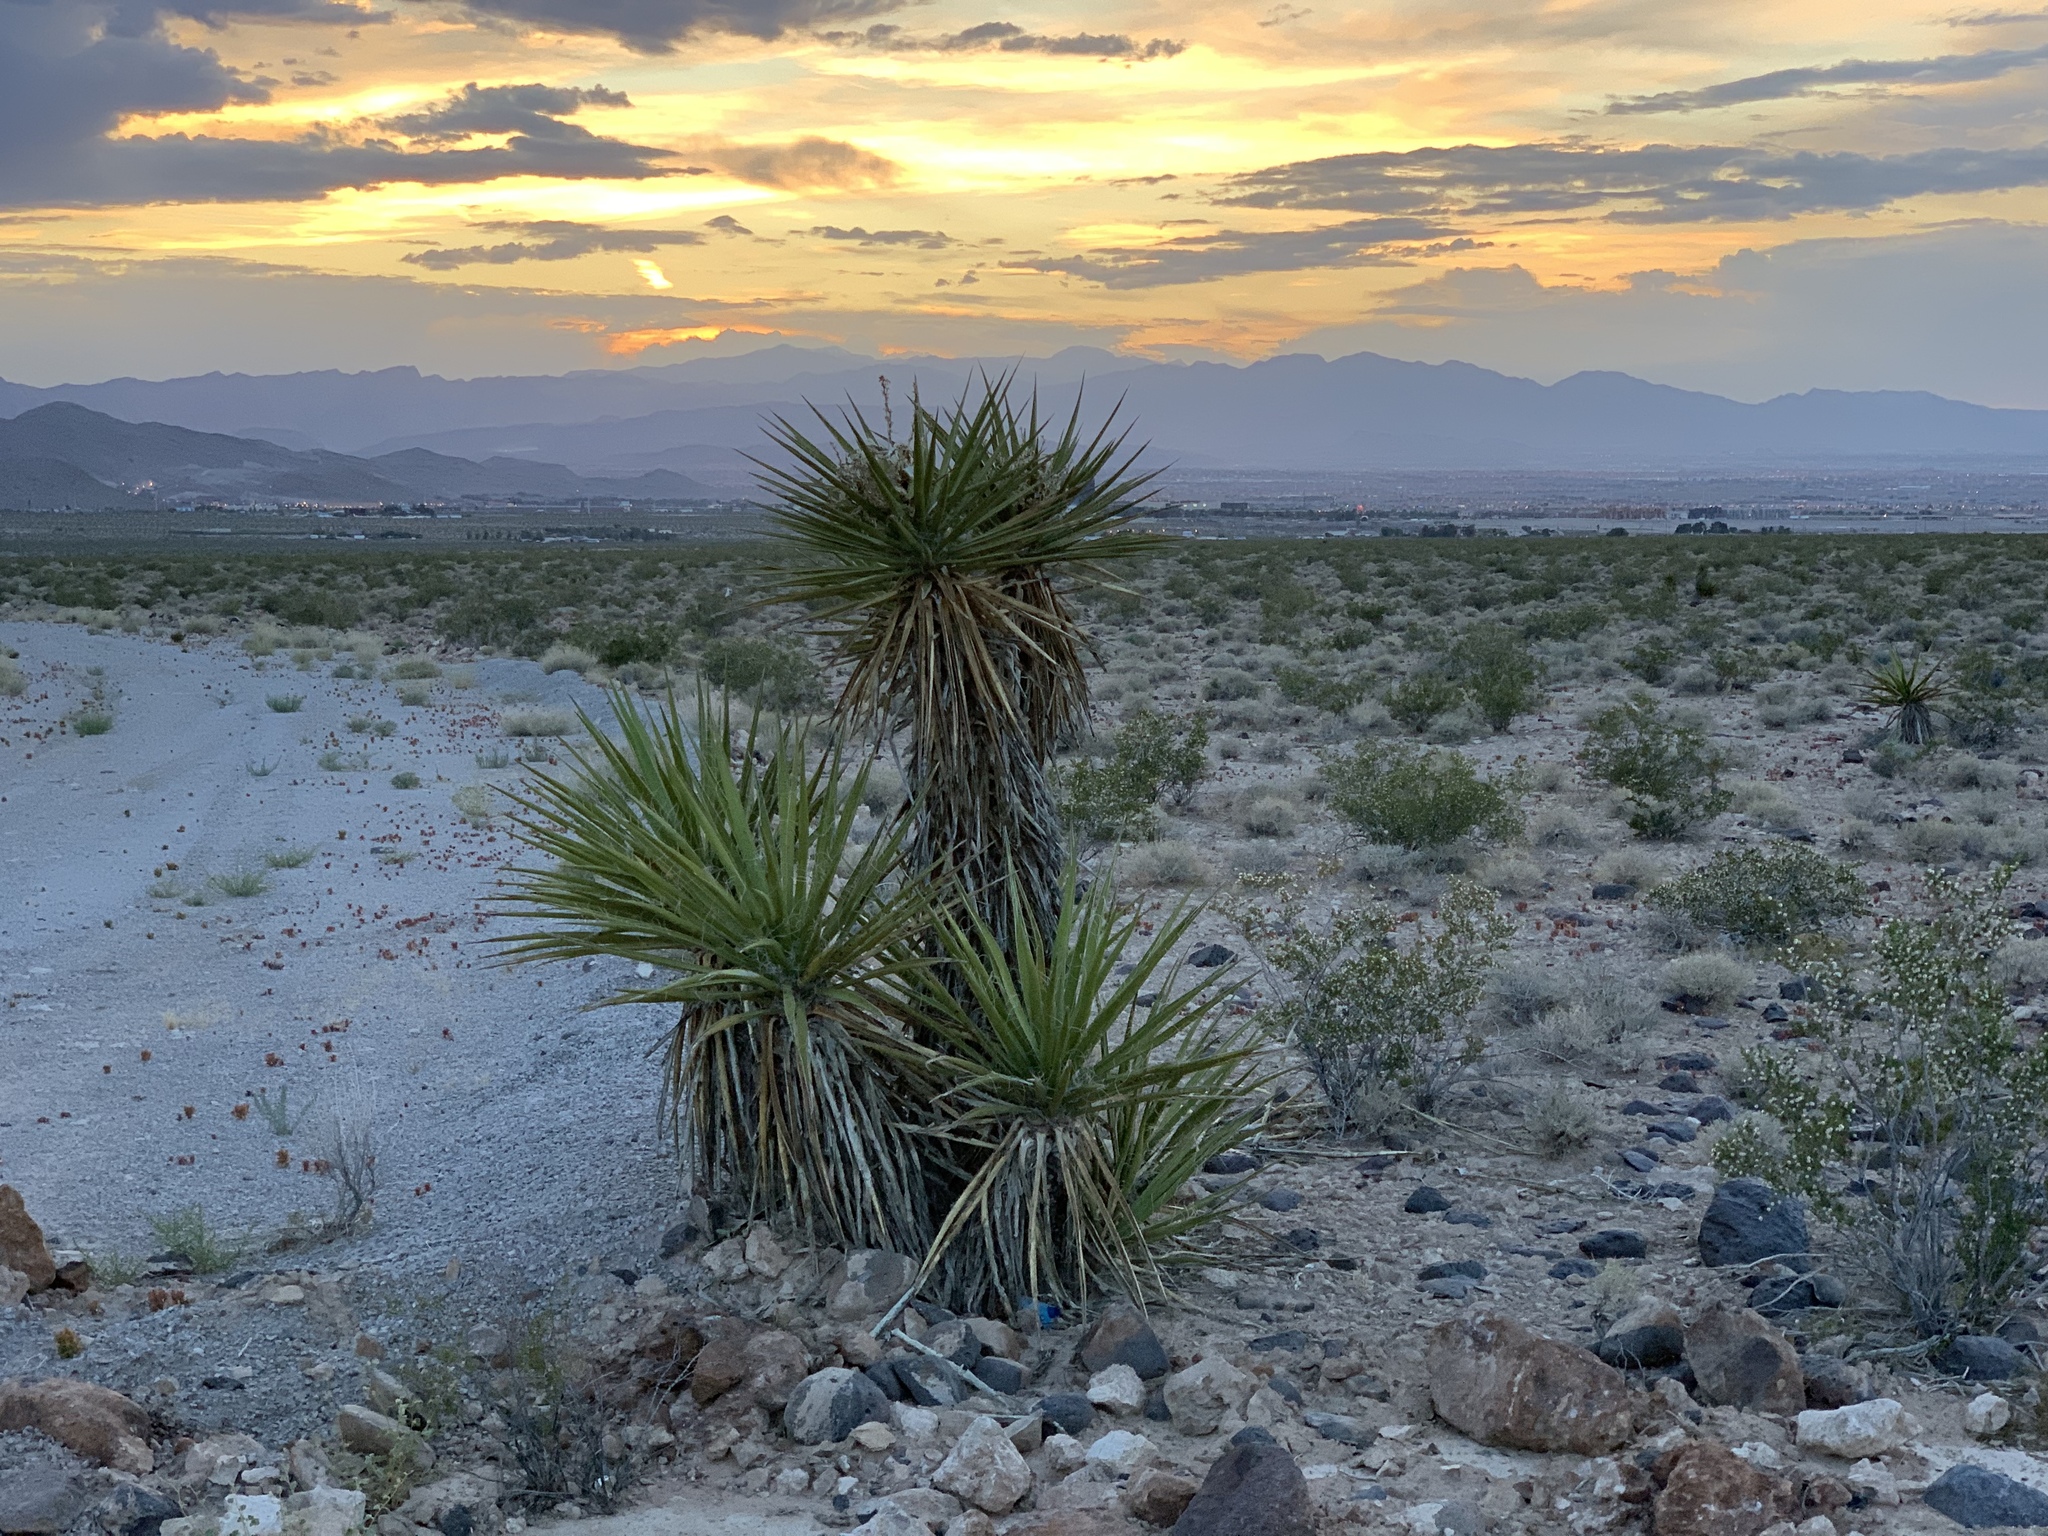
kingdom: Plantae
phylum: Tracheophyta
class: Liliopsida
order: Asparagales
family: Asparagaceae
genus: Yucca
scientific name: Yucca schidigera
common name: Mojave yucca
